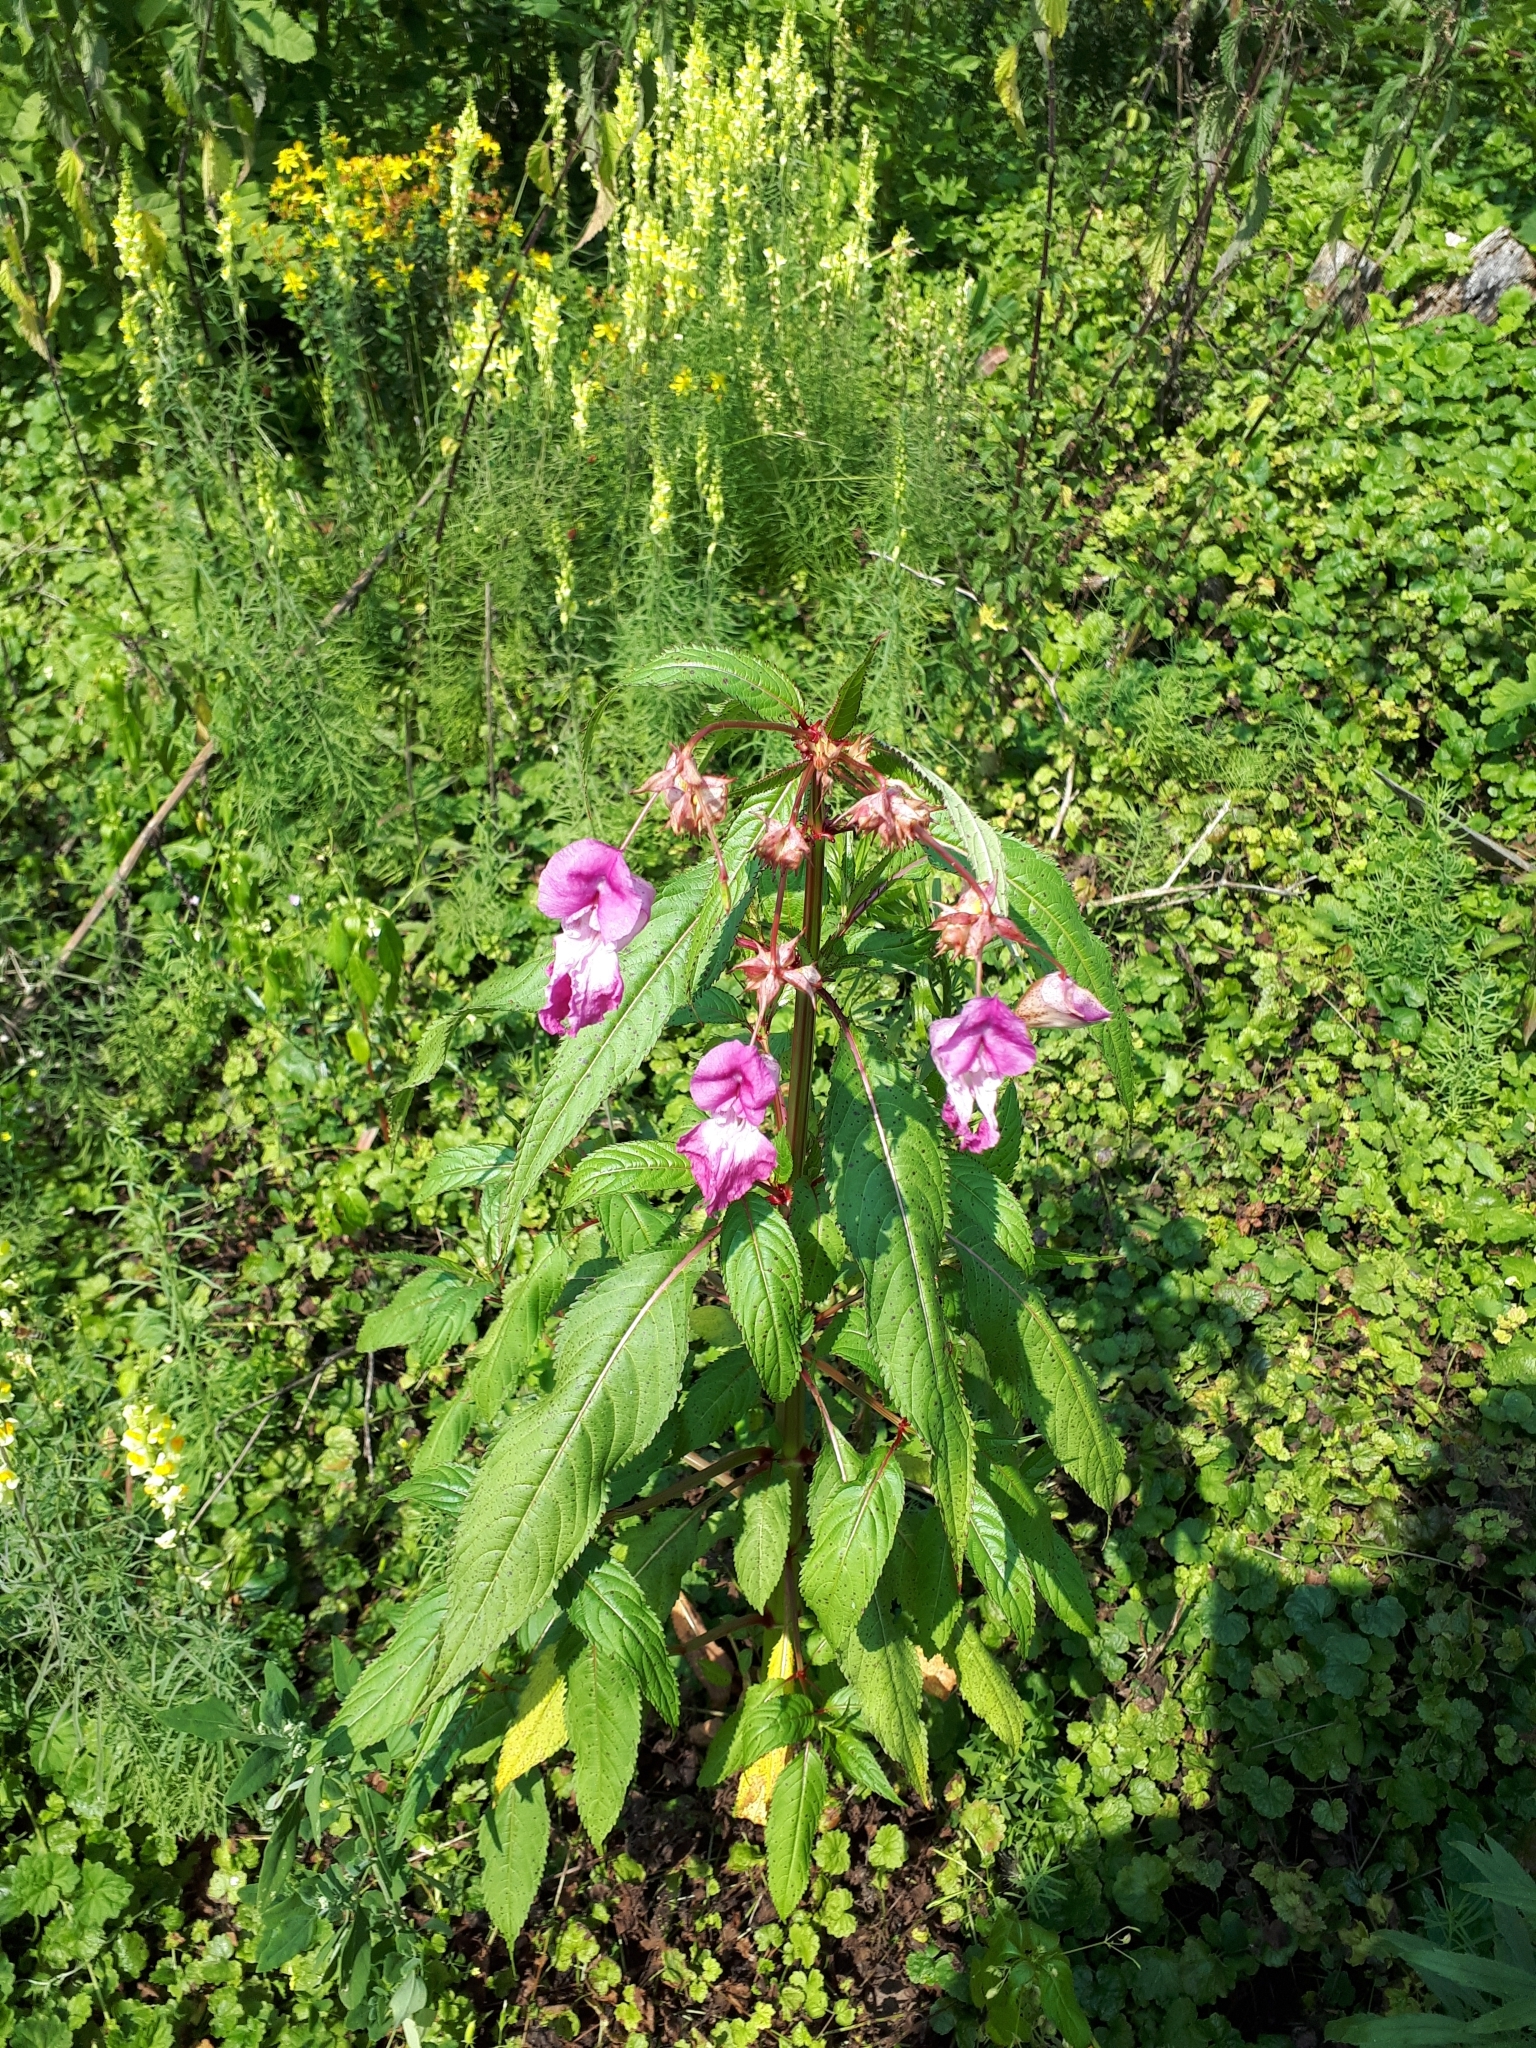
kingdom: Plantae
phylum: Tracheophyta
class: Magnoliopsida
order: Ericales
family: Balsaminaceae
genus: Impatiens
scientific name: Impatiens glandulifera
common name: Himalayan balsam
